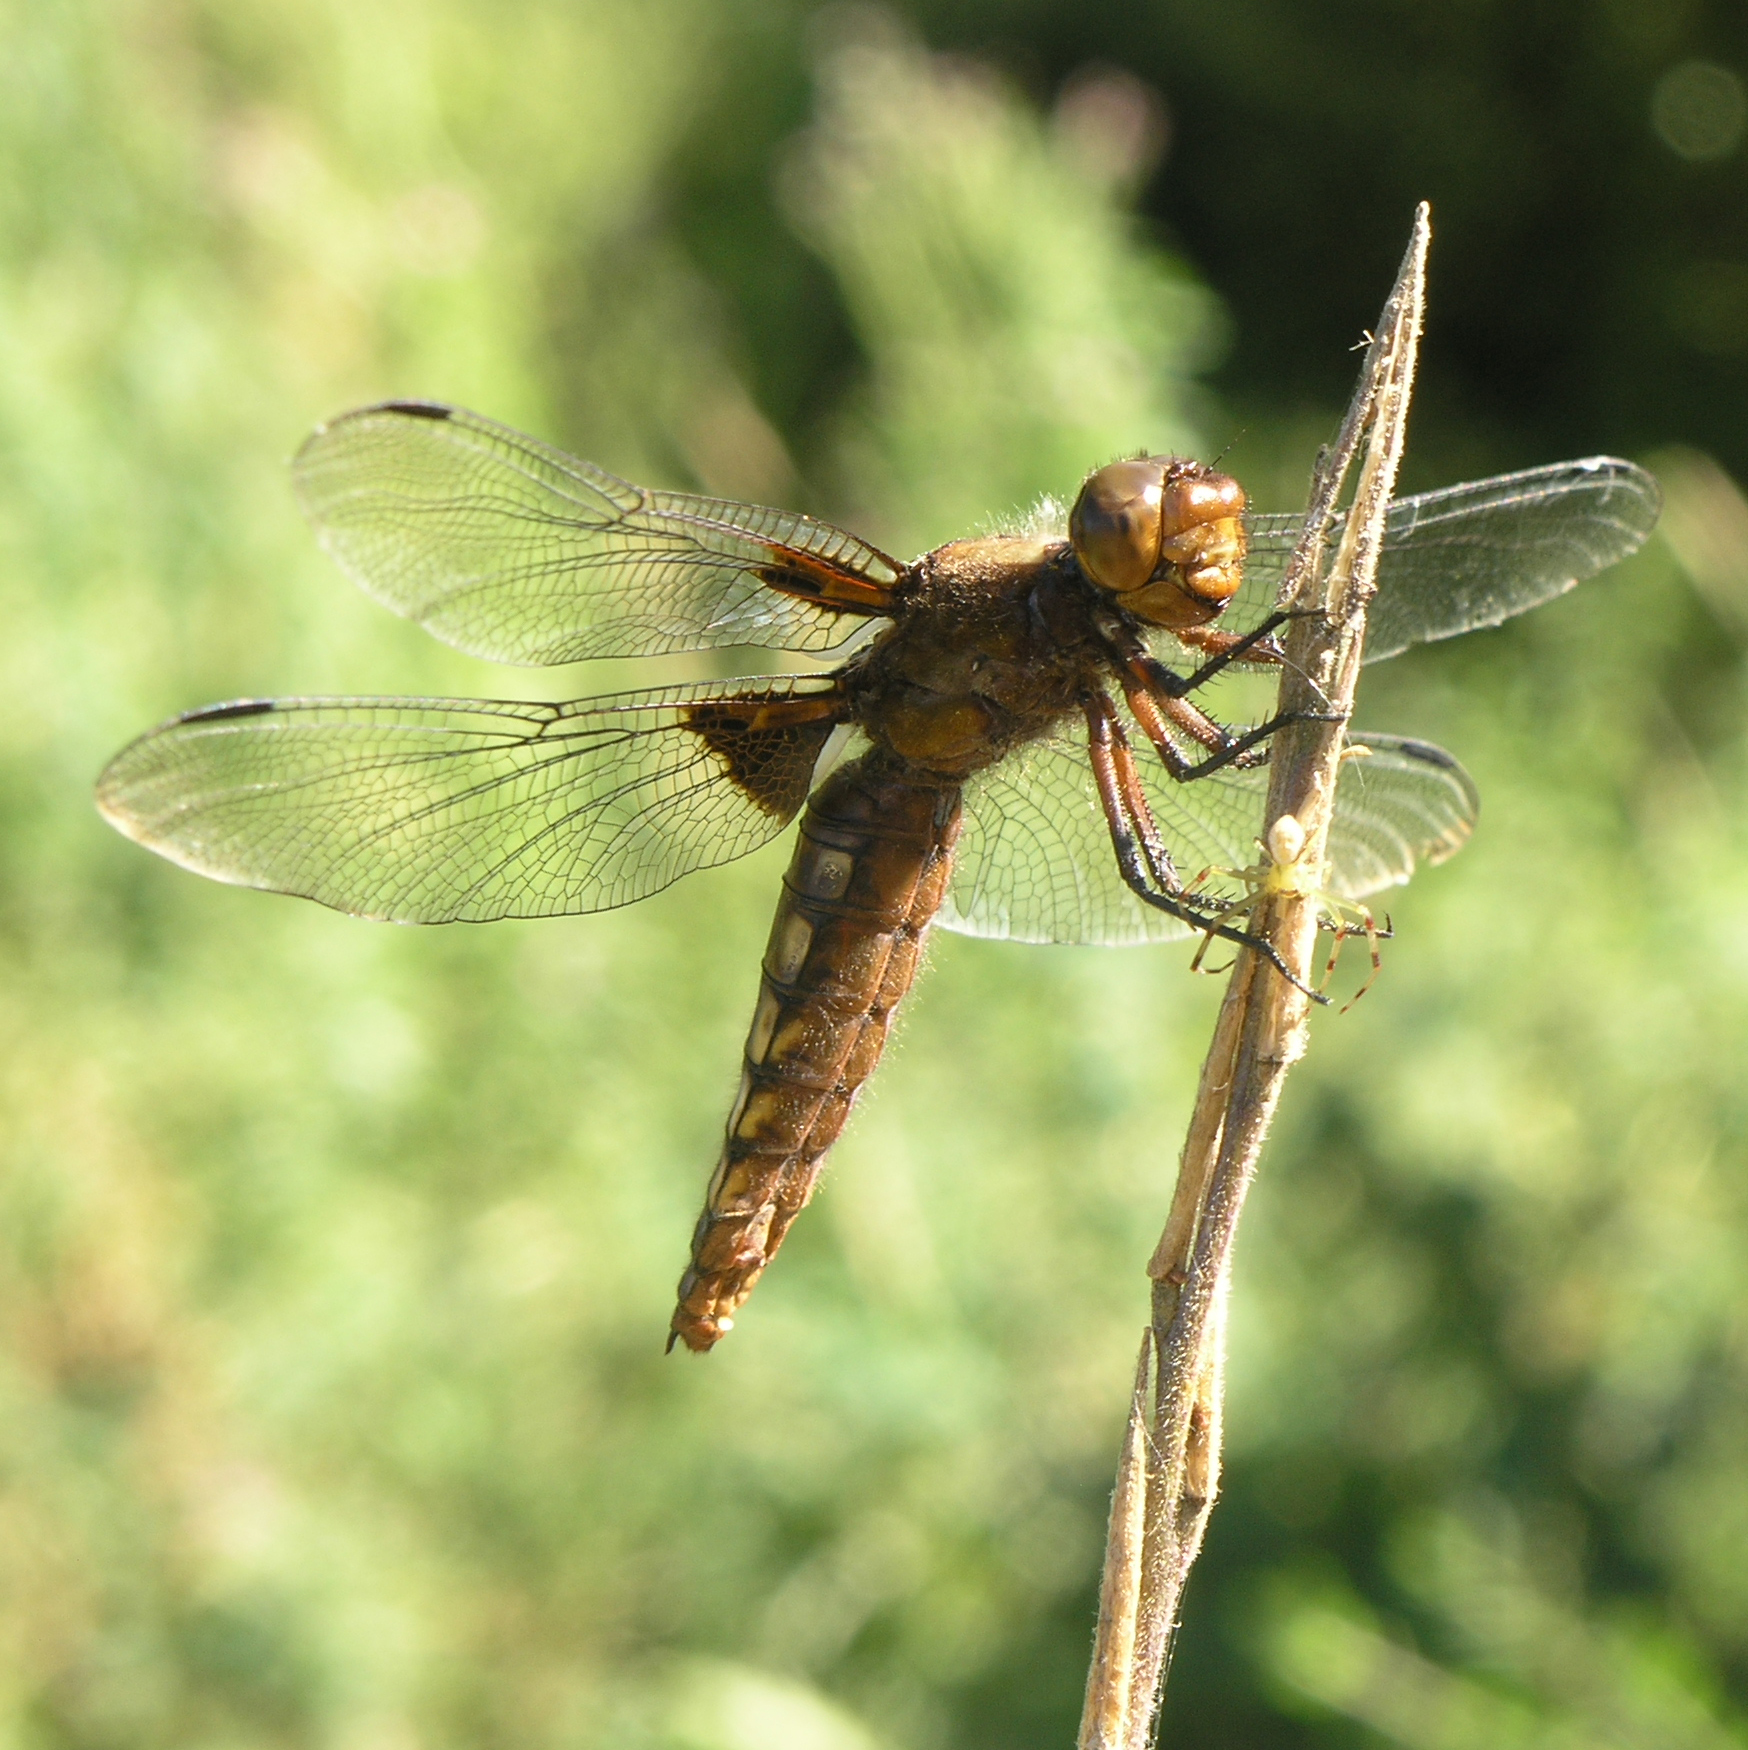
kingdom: Animalia
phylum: Arthropoda
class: Insecta
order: Odonata
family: Libellulidae
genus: Libellula
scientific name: Libellula depressa
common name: Broad-bodied chaser
